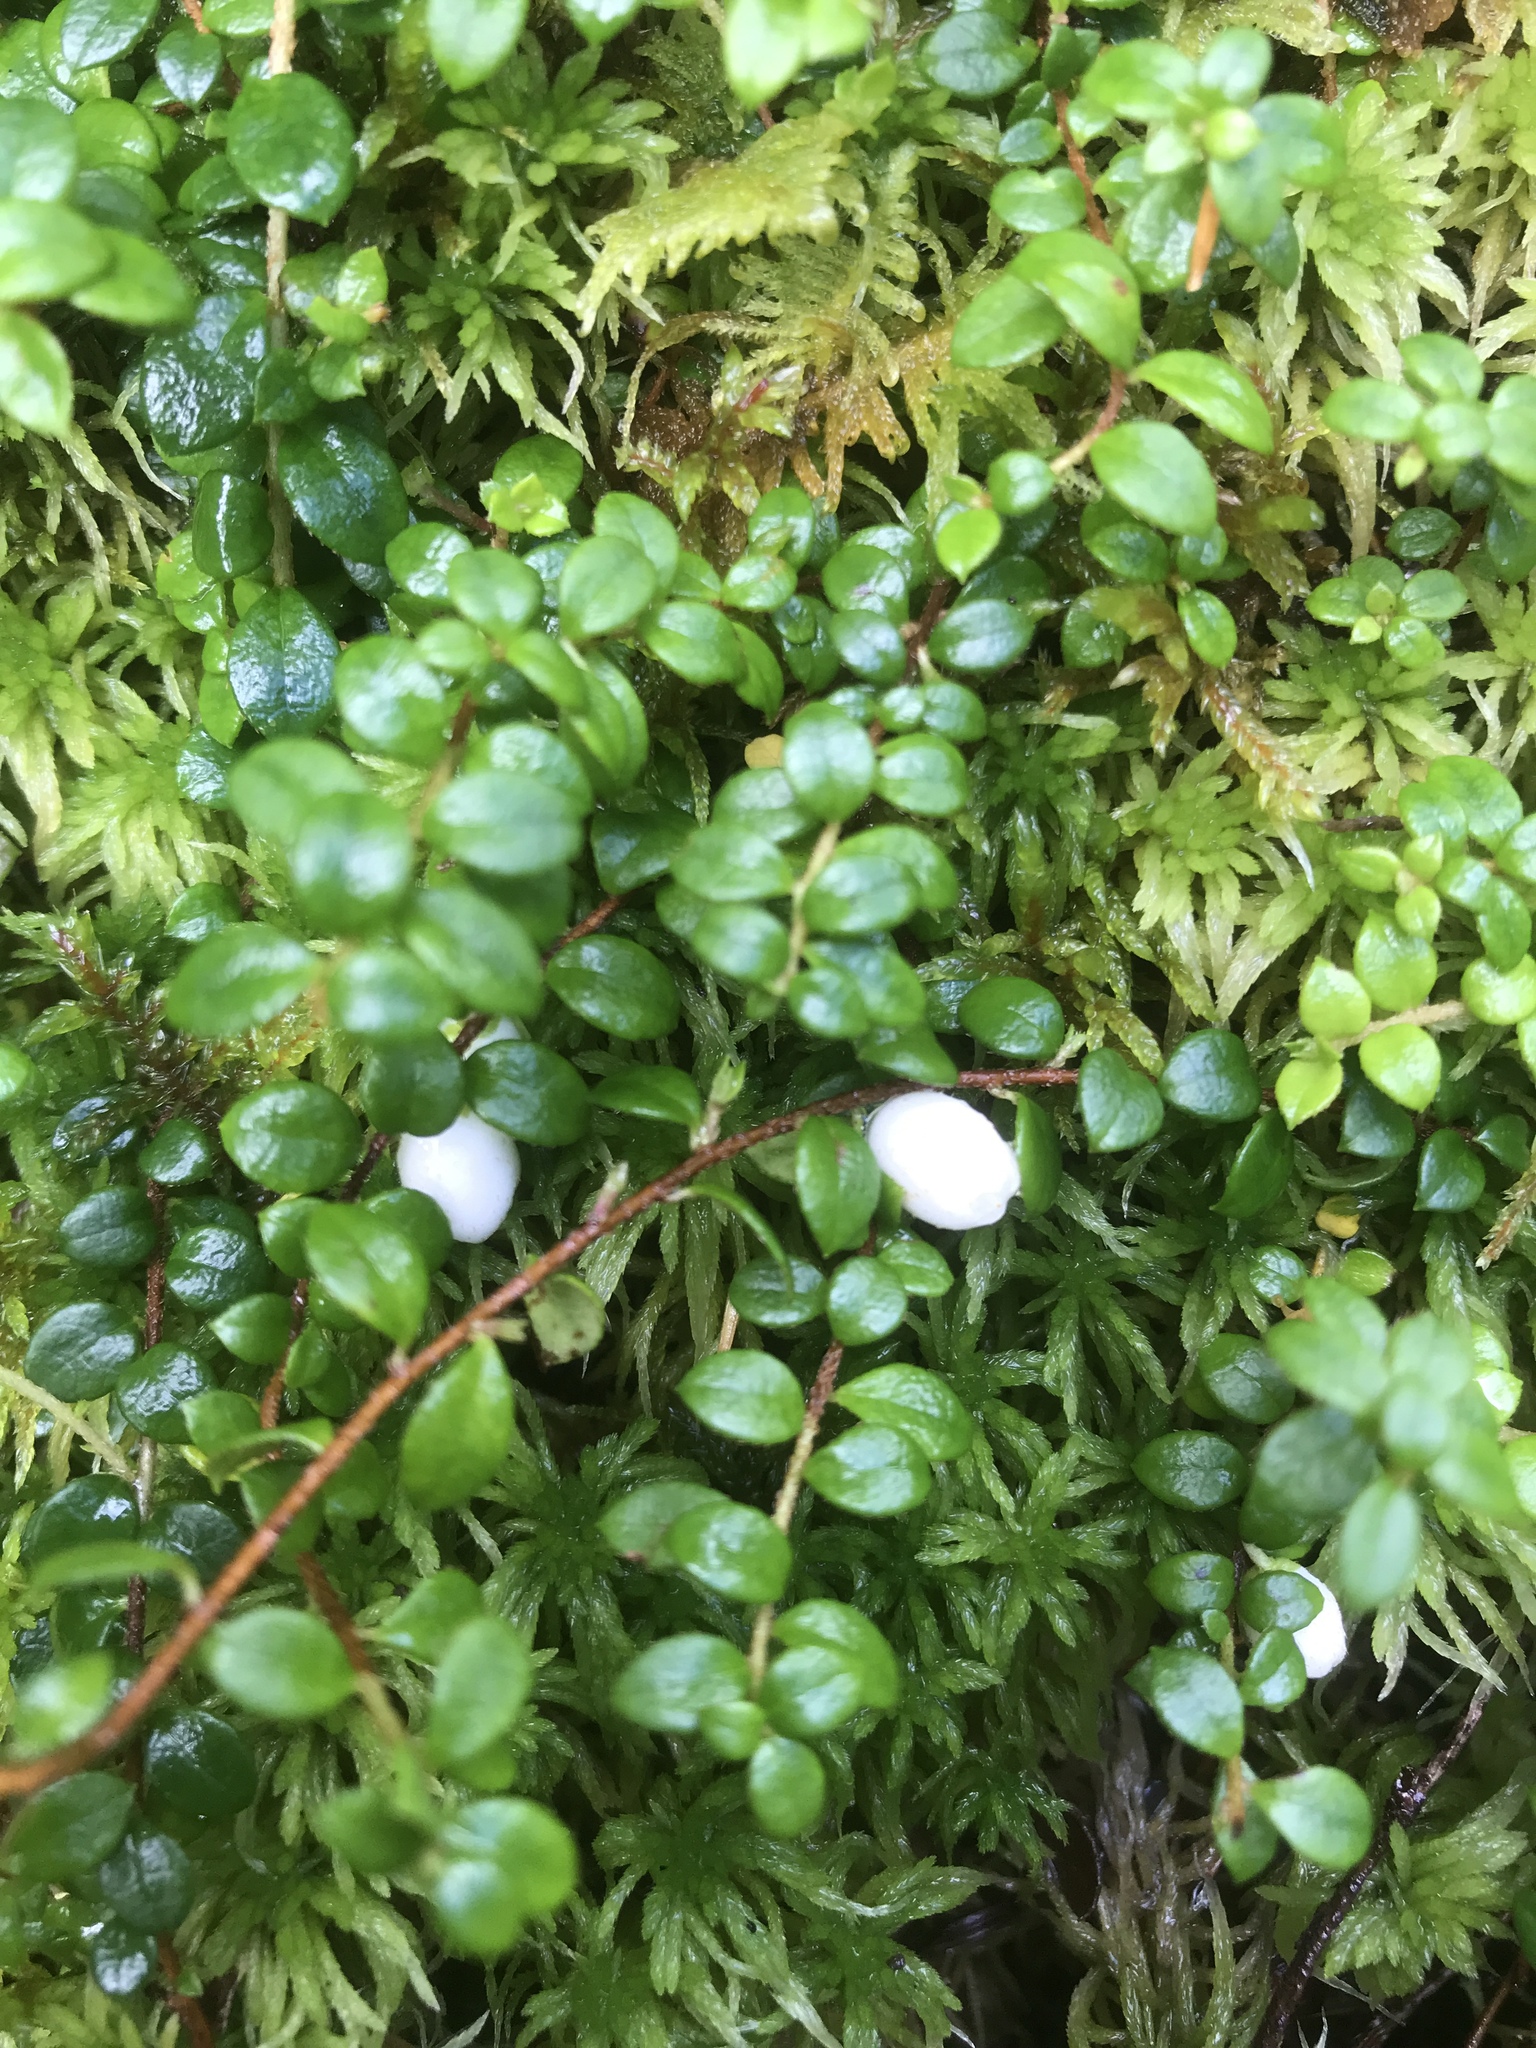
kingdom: Plantae
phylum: Tracheophyta
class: Magnoliopsida
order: Ericales
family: Ericaceae
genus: Gaultheria
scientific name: Gaultheria hispidula
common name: Cancer wintergreen
